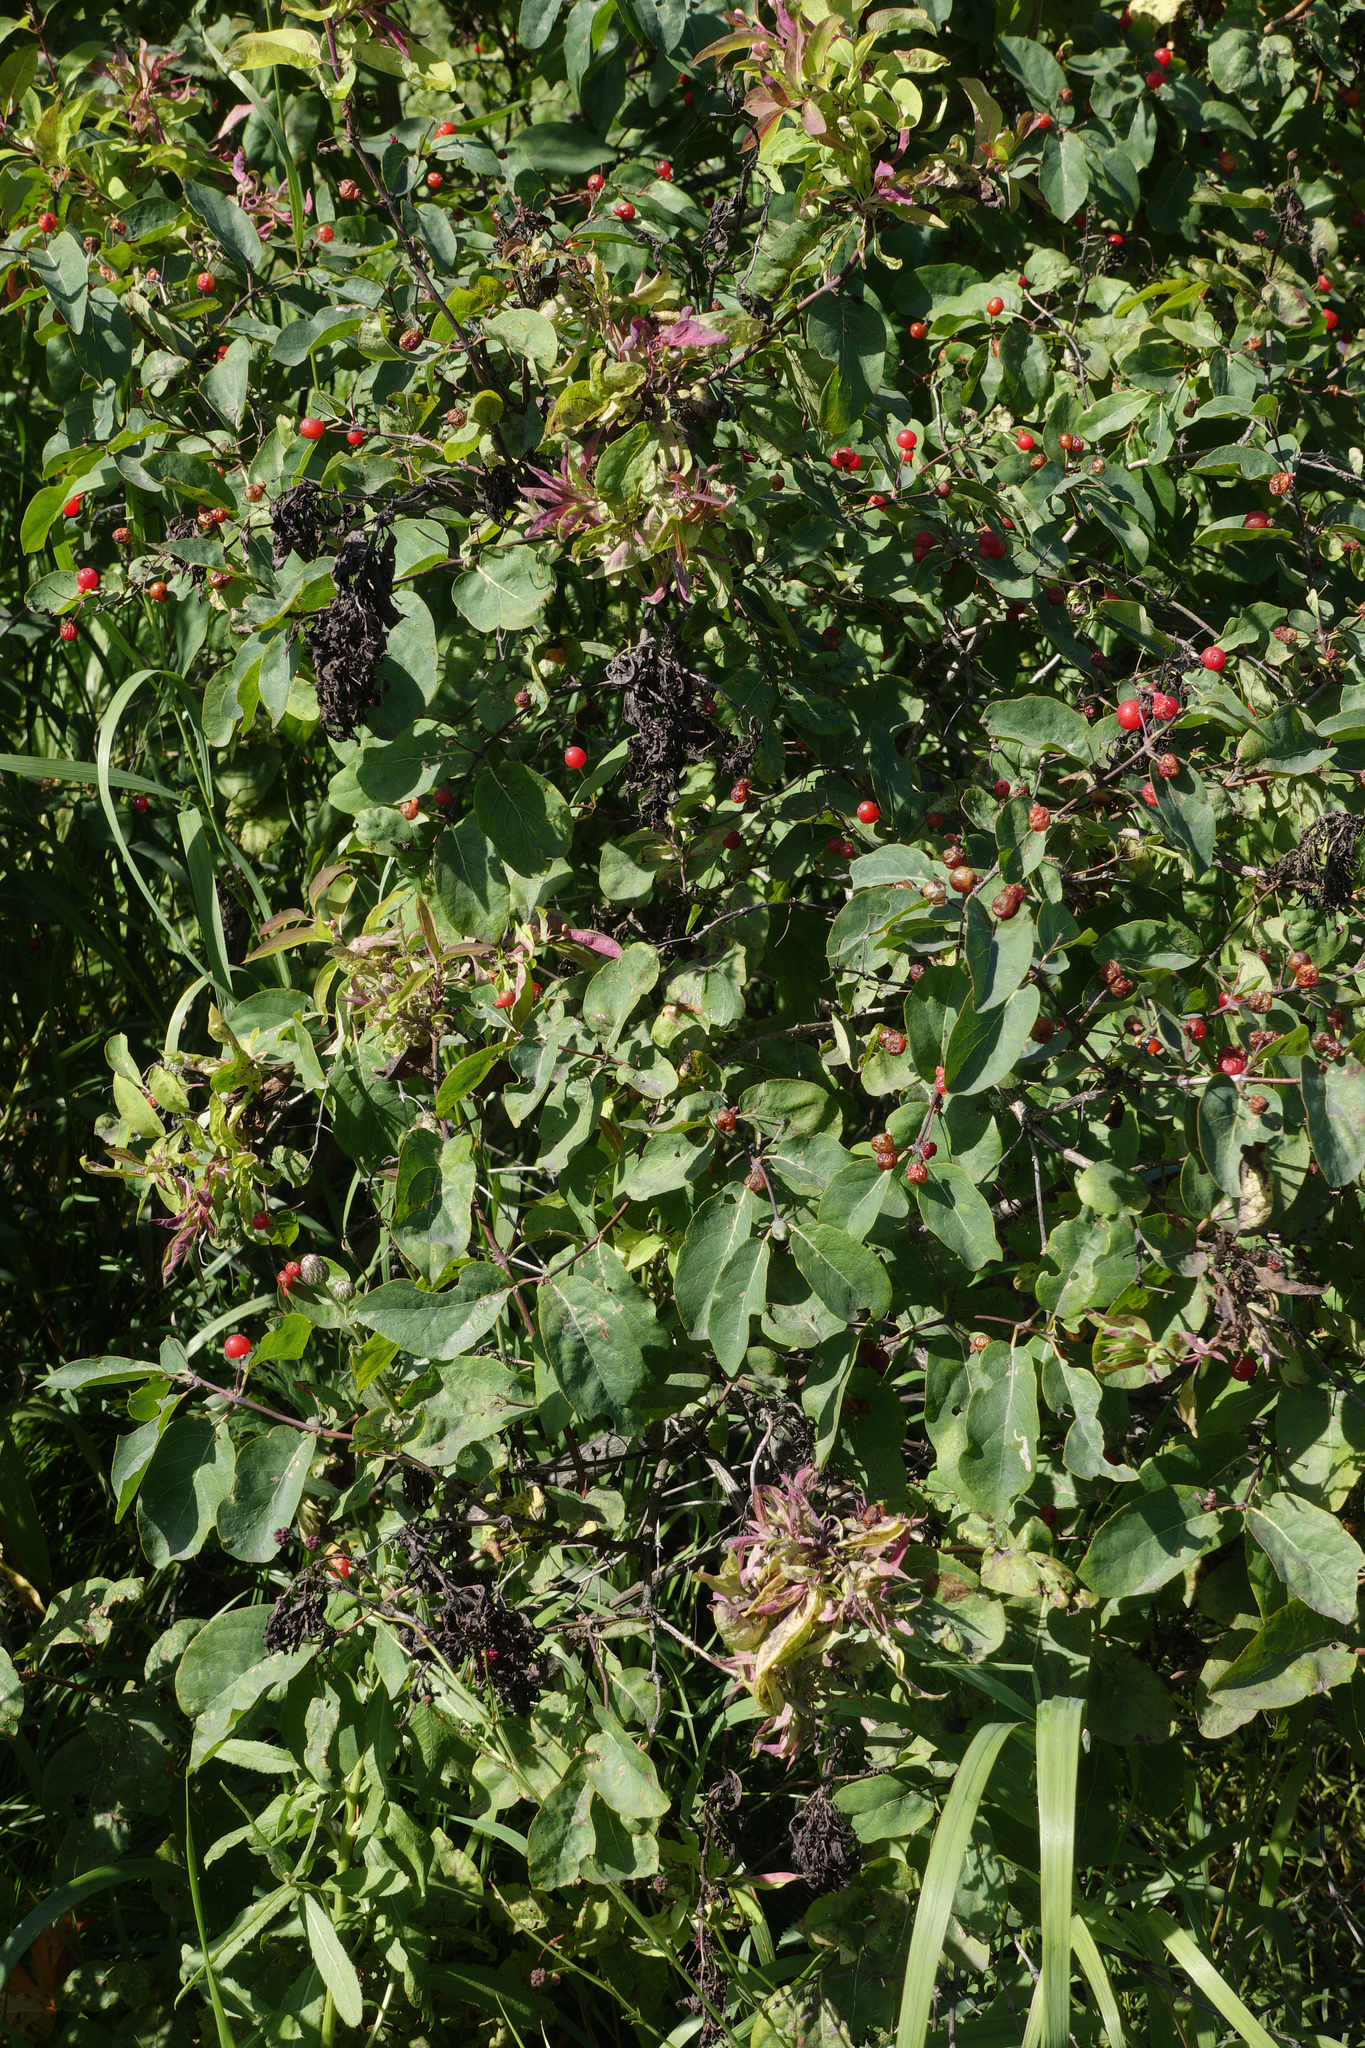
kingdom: Plantae
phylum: Tracheophyta
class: Magnoliopsida
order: Dipsacales
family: Caprifoliaceae
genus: Lonicera
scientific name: Lonicera tatarica
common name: Tatarian honeysuckle
